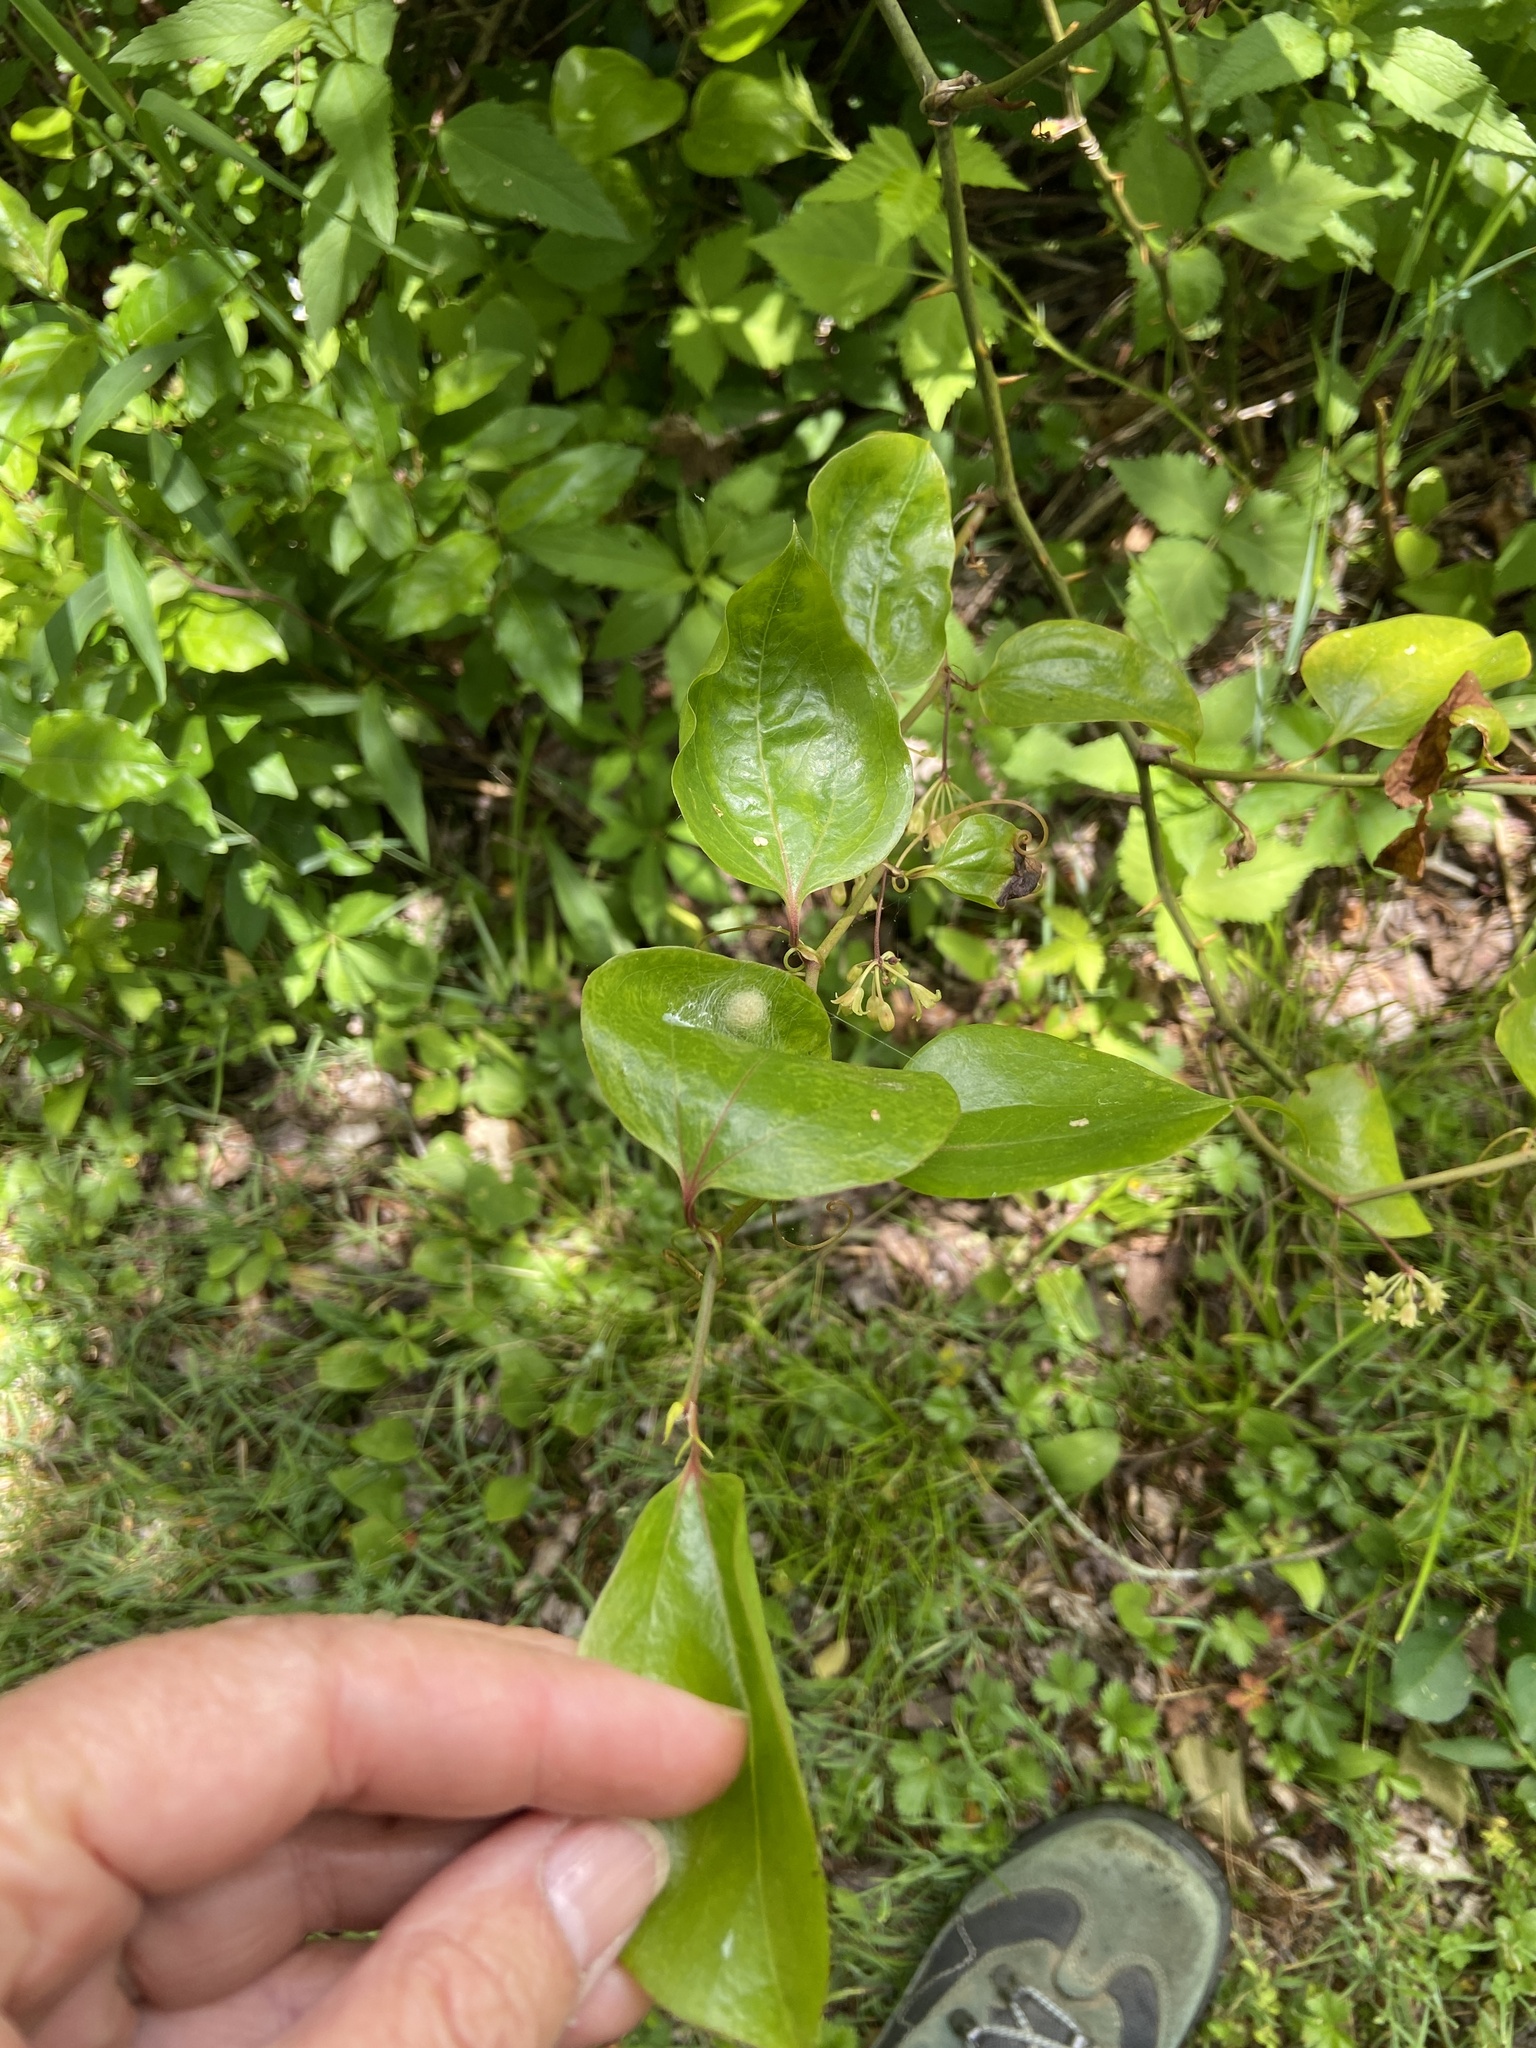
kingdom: Plantae
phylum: Tracheophyta
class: Liliopsida
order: Liliales
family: Smilacaceae
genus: Smilax
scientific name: Smilax rotundifolia
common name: Bullbriar
